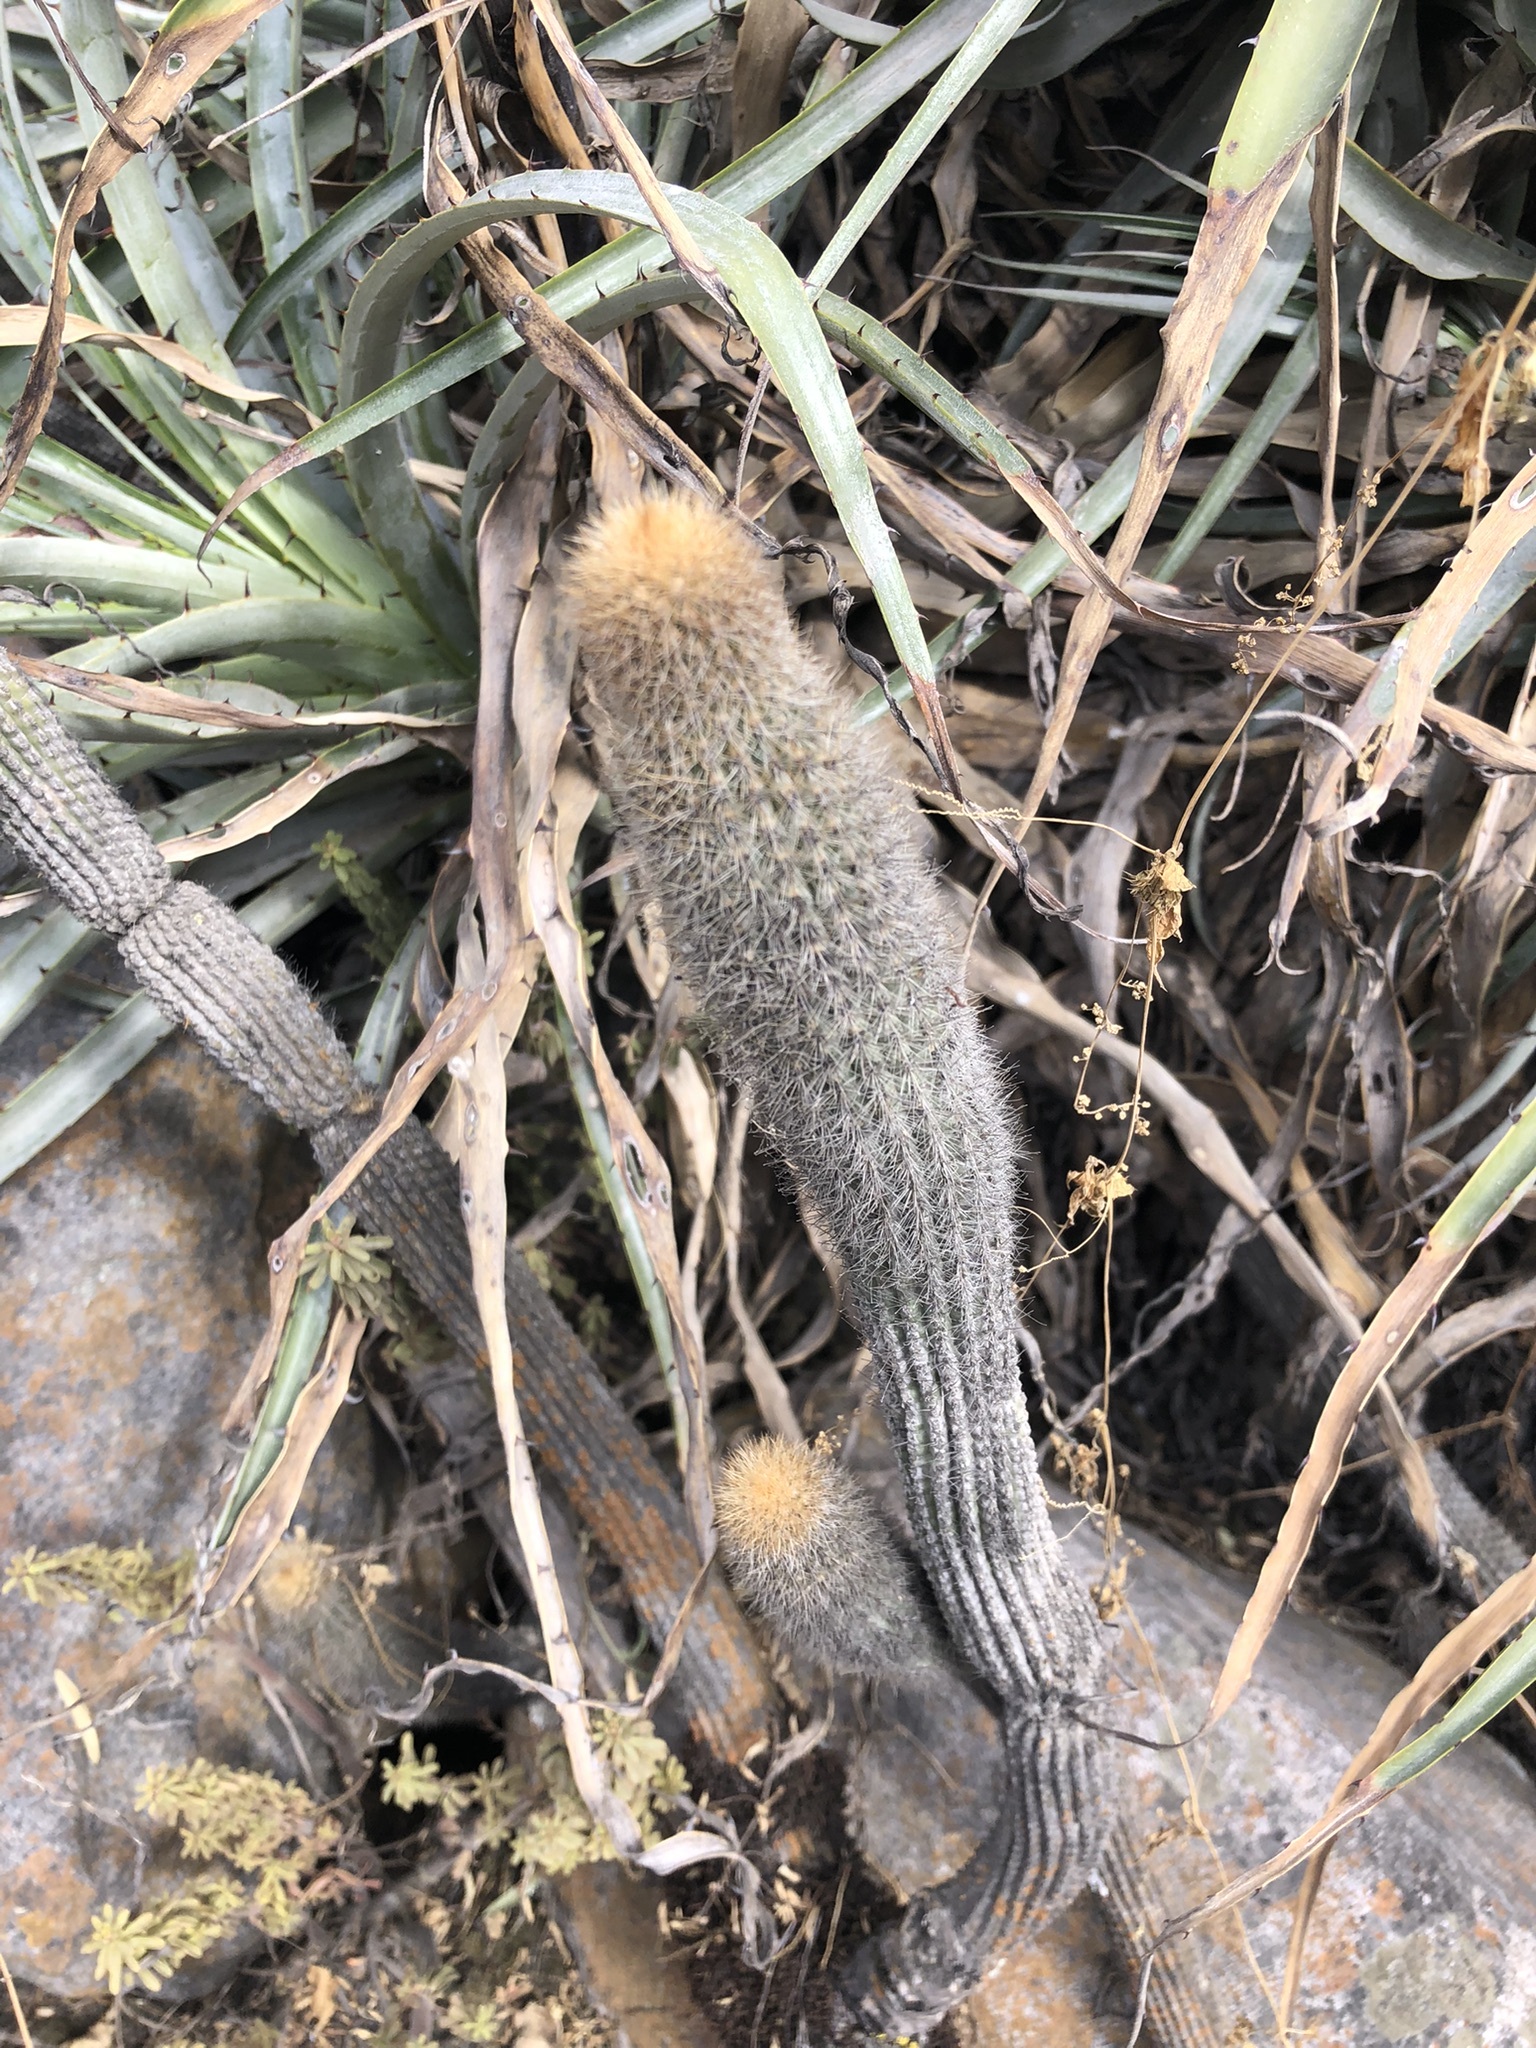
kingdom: Plantae
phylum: Tracheophyta
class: Magnoliopsida
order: Caryophyllales
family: Cactaceae
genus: Borzicactus
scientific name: Borzicactus acanthurus
